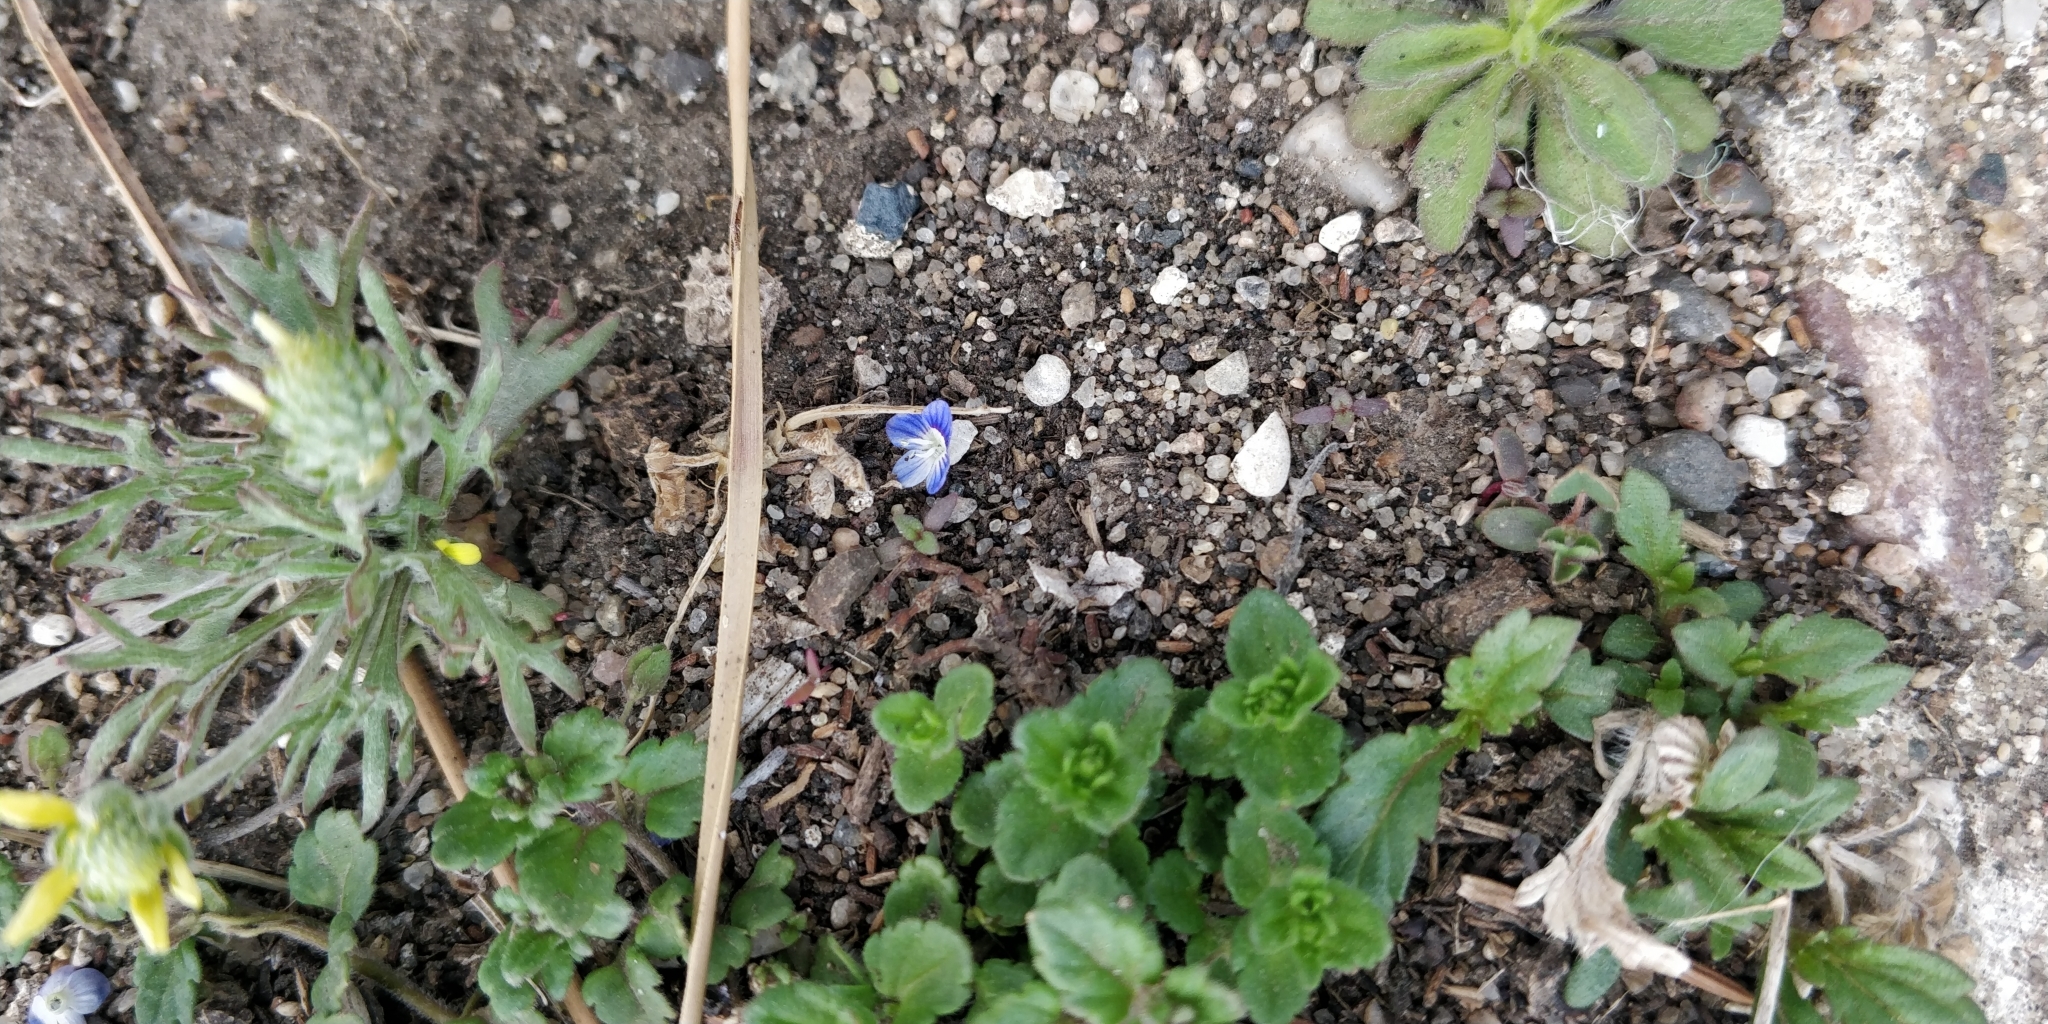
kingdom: Plantae
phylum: Tracheophyta
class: Magnoliopsida
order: Lamiales
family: Plantaginaceae
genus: Veronica
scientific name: Veronica polita
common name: Grey field-speedwell
